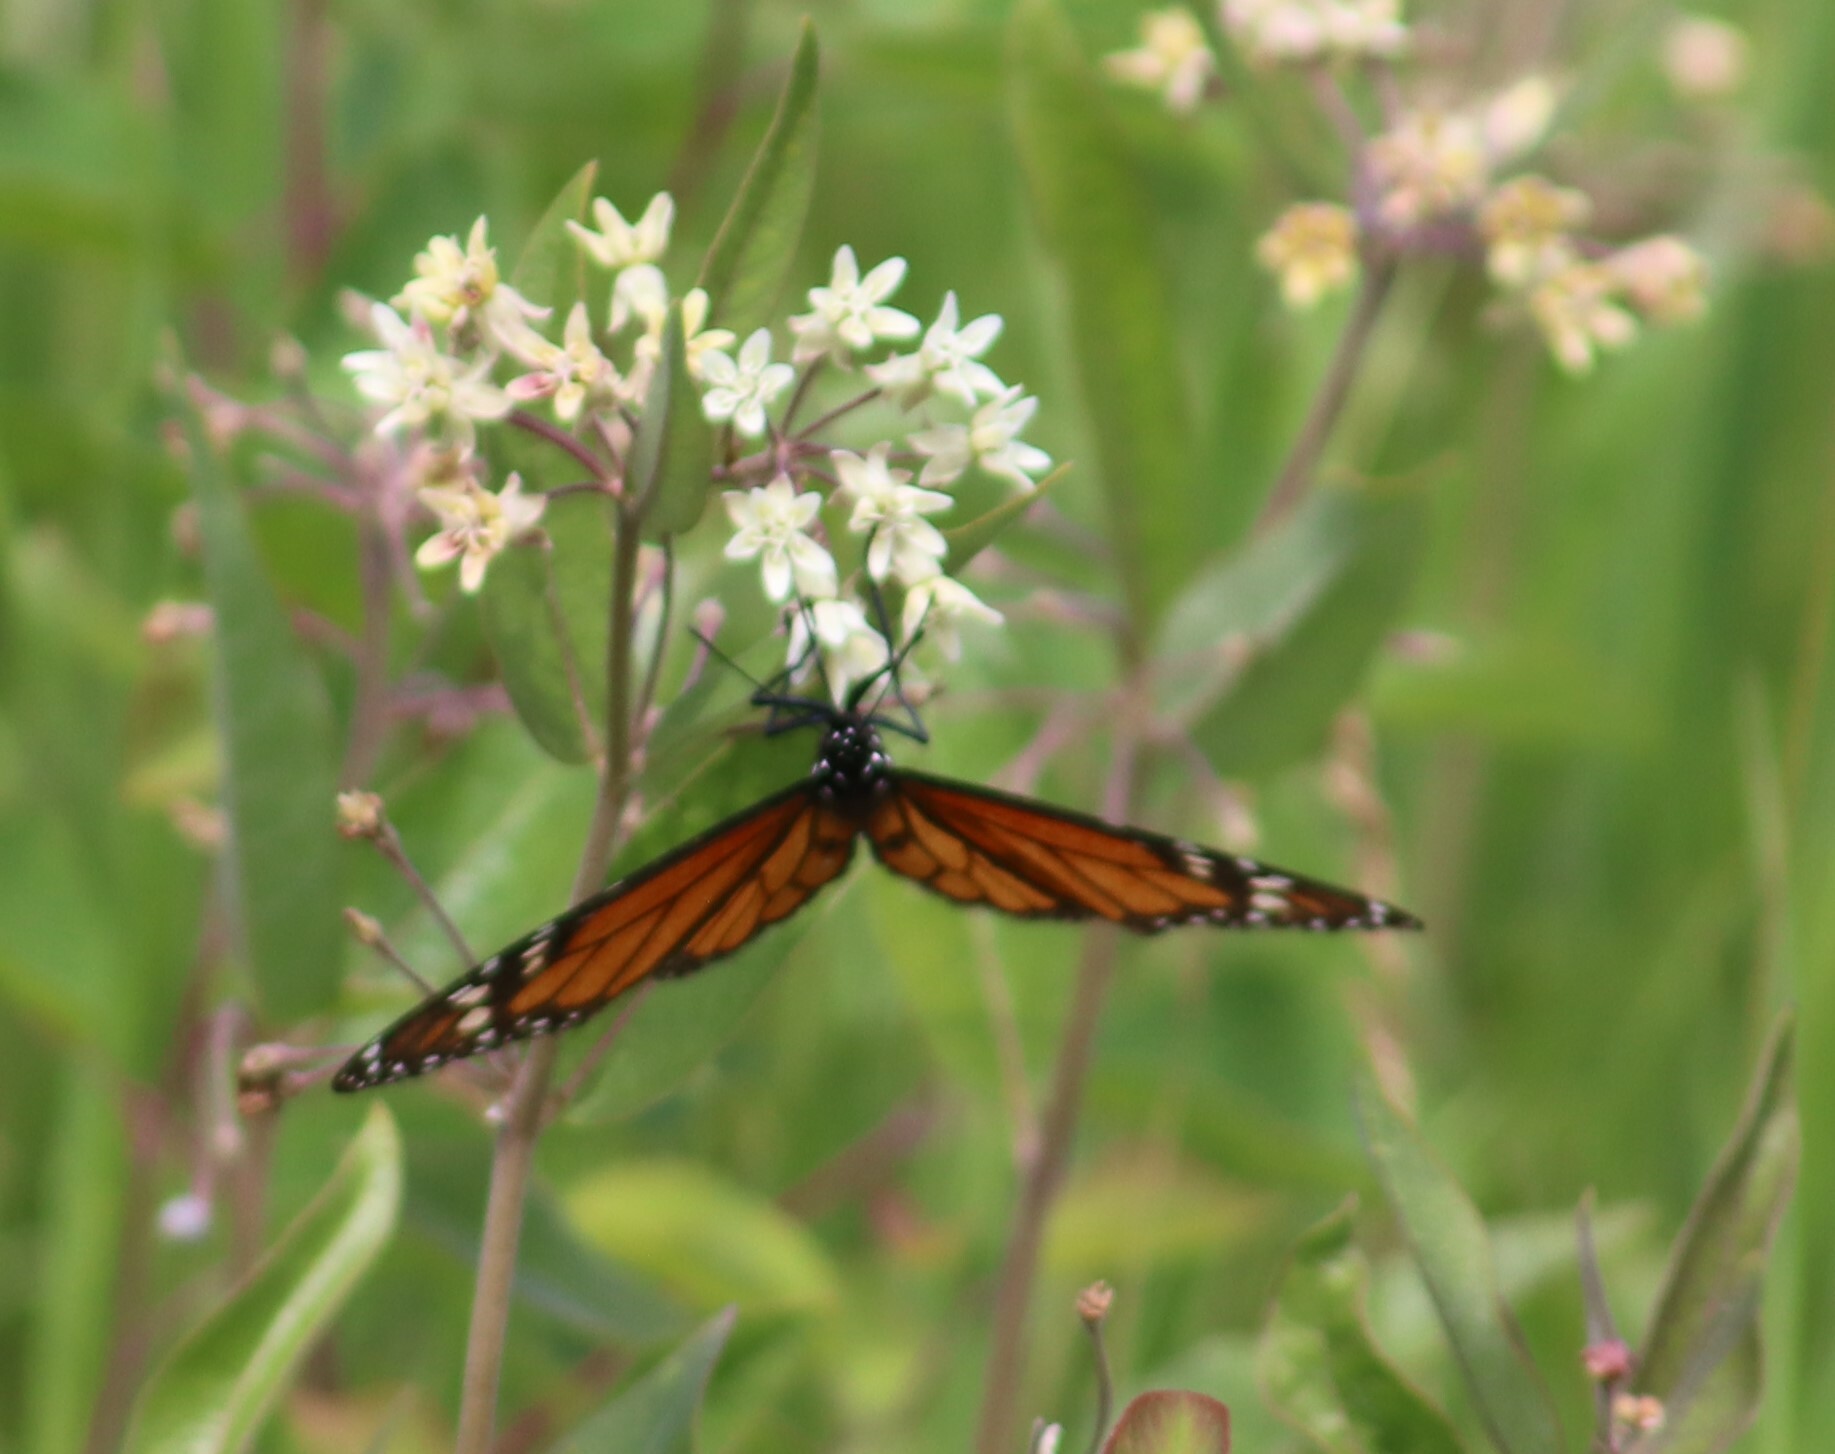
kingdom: Animalia
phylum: Arthropoda
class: Insecta
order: Lepidoptera
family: Nymphalidae
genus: Danaus
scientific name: Danaus plexippus
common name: Monarch
